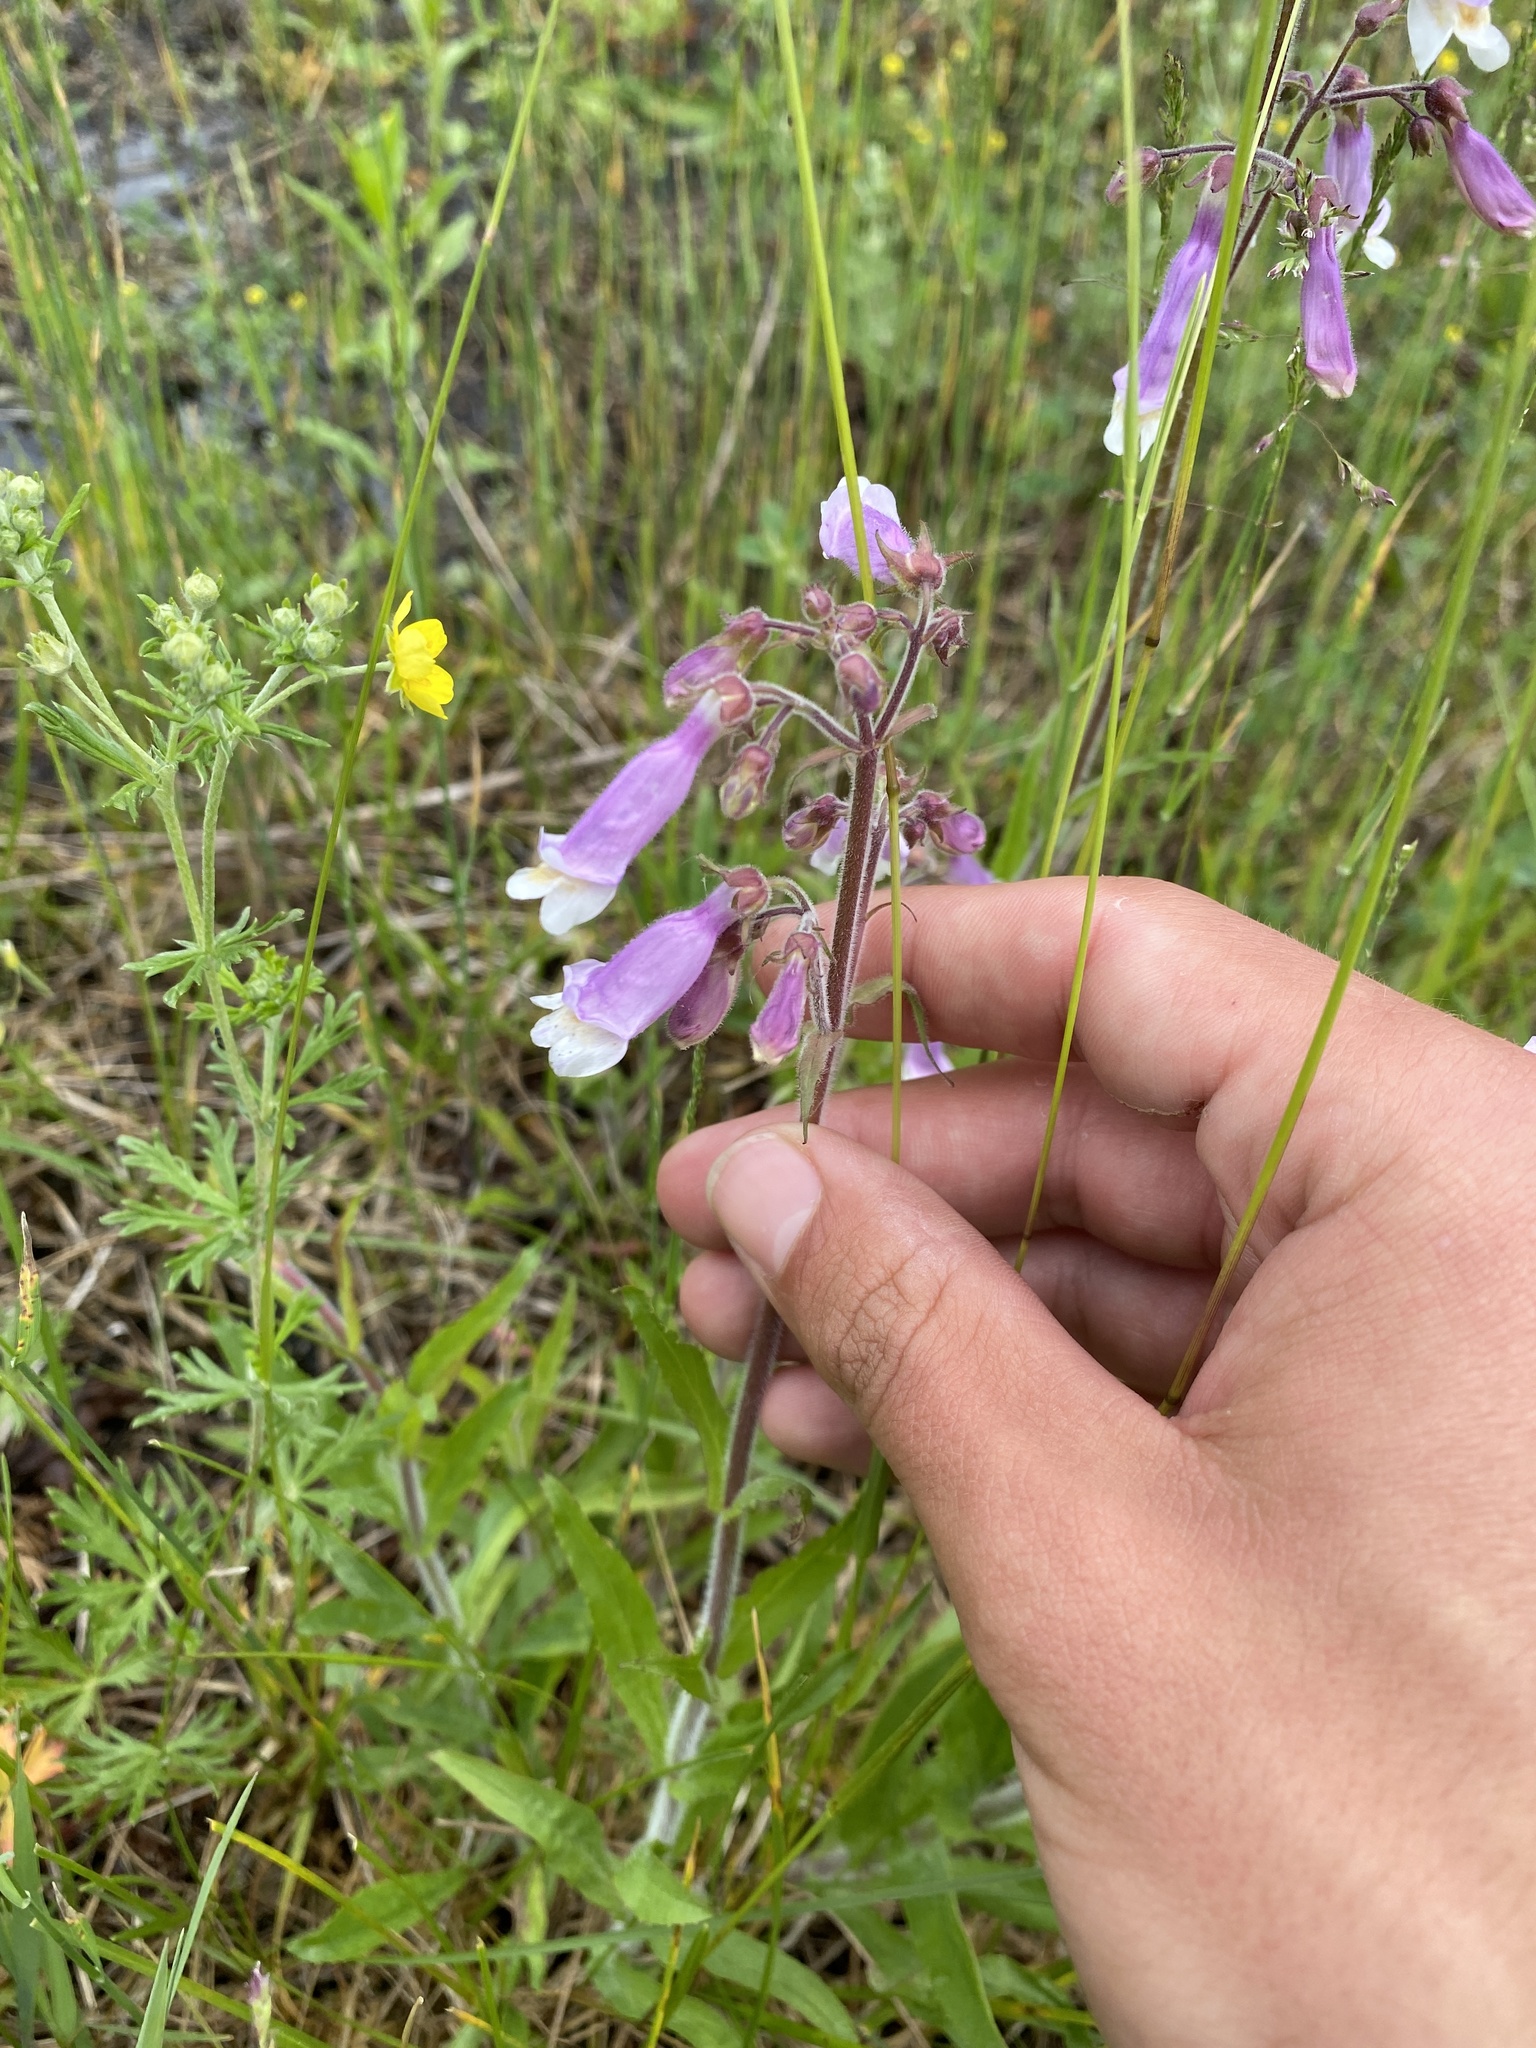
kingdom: Plantae
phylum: Tracheophyta
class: Magnoliopsida
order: Lamiales
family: Plantaginaceae
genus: Penstemon
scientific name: Penstemon hirsutus
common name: Hairy beardtongue
